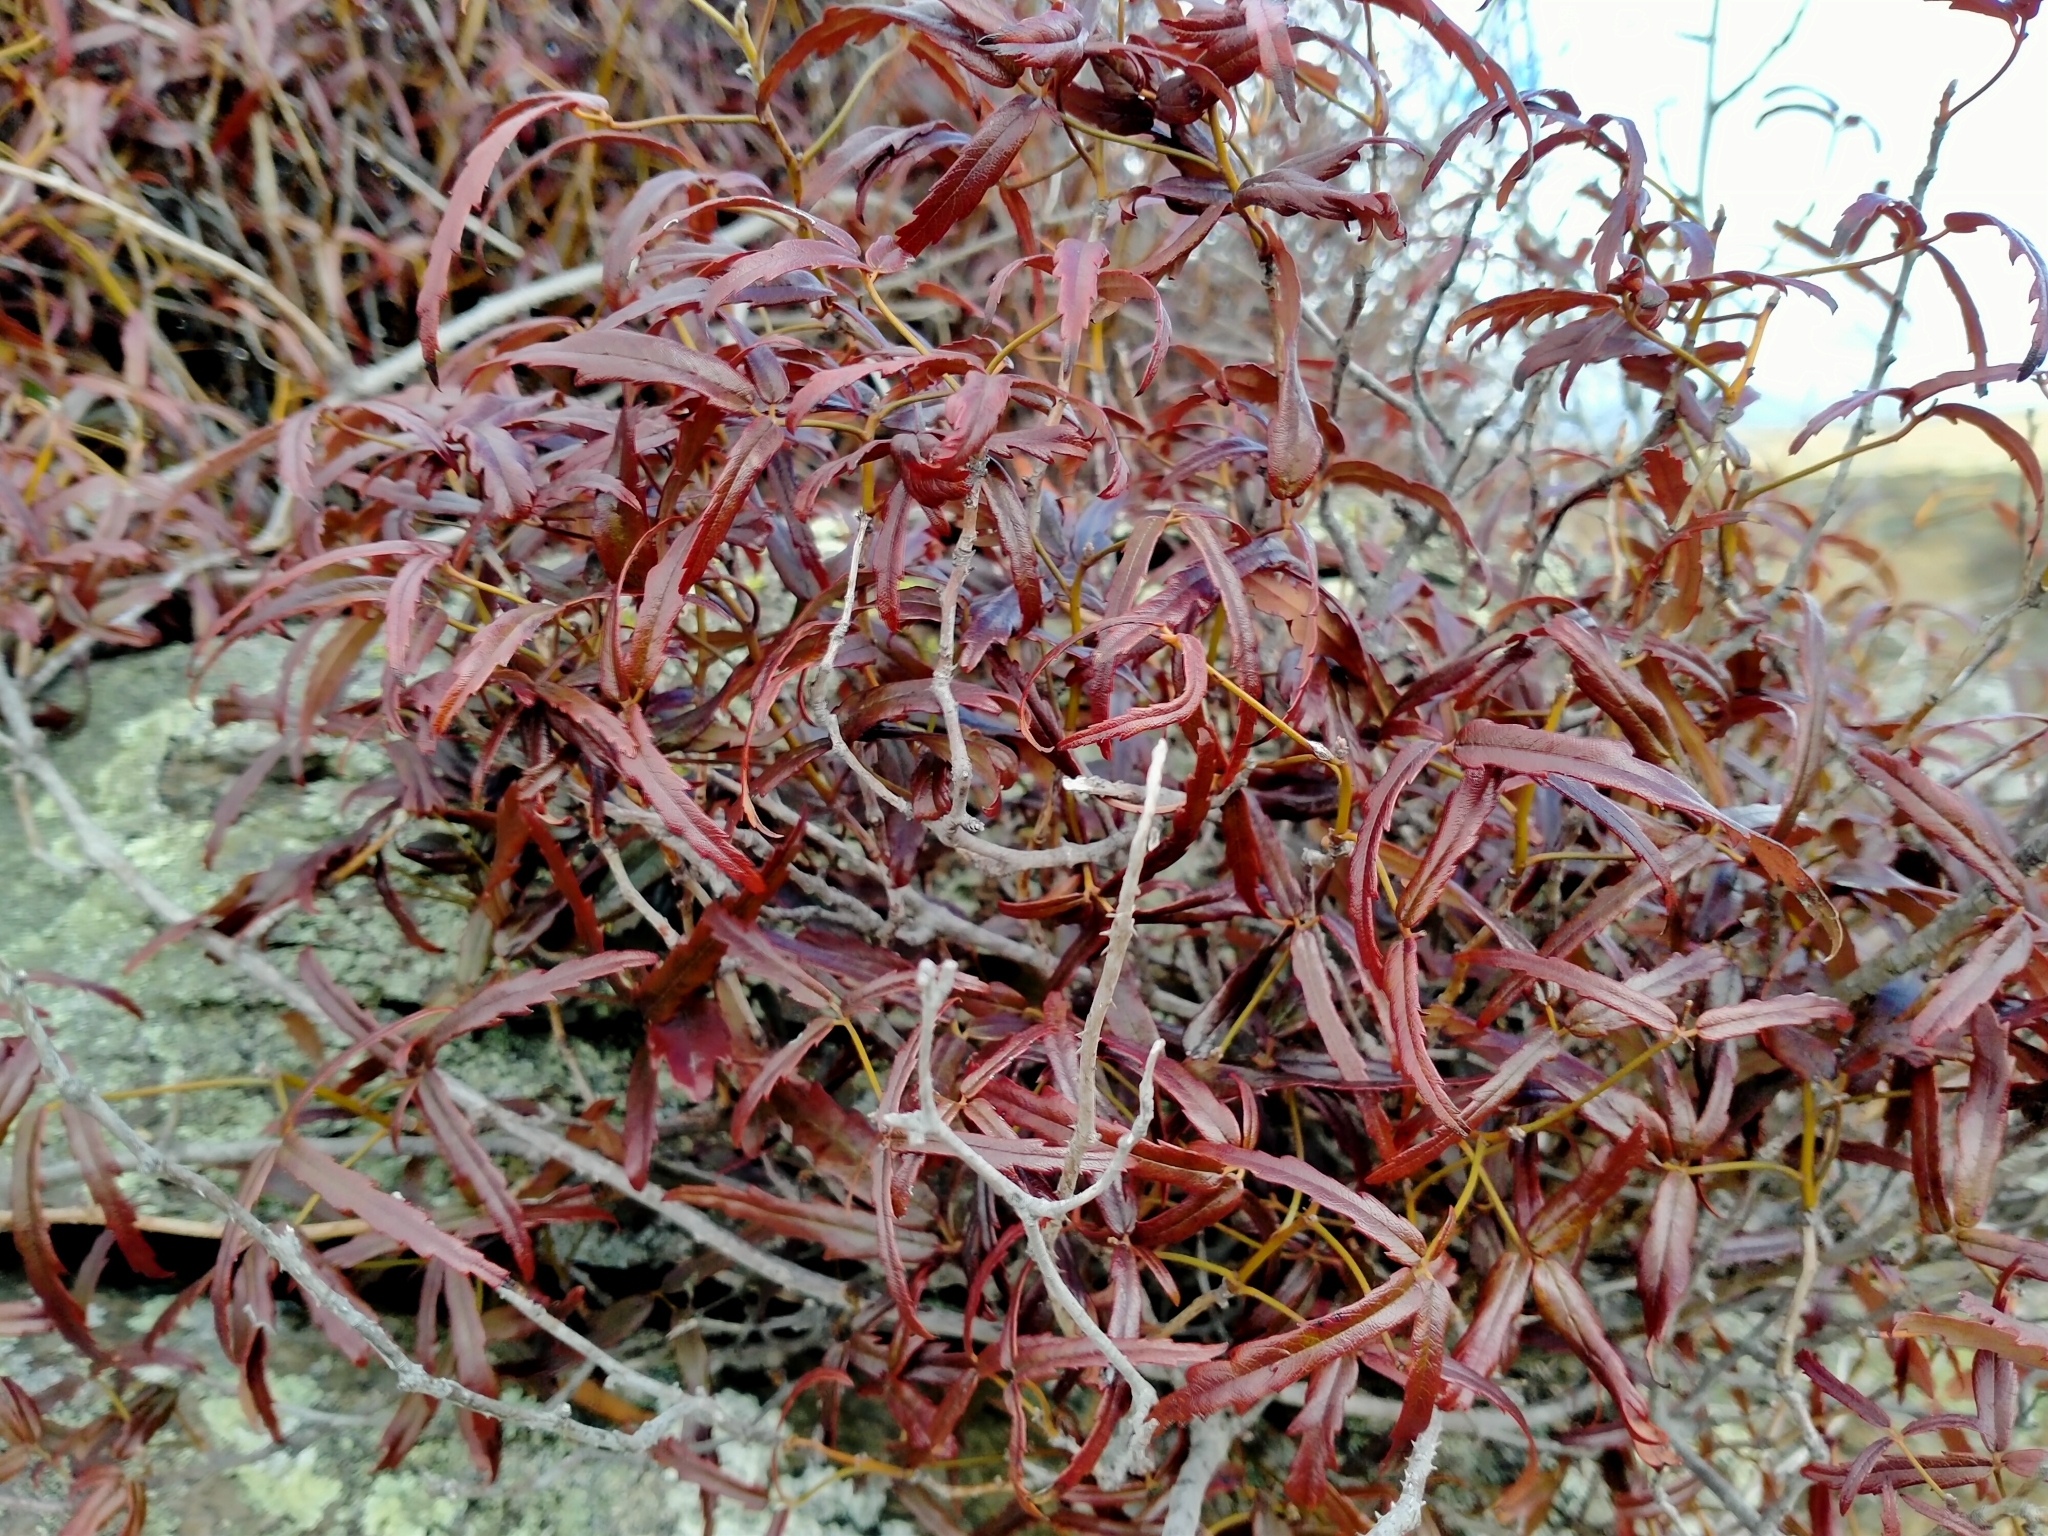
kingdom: Plantae
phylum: Tracheophyta
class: Magnoliopsida
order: Rosales
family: Rosaceae
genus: Rubus
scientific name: Rubus schmidelioides
